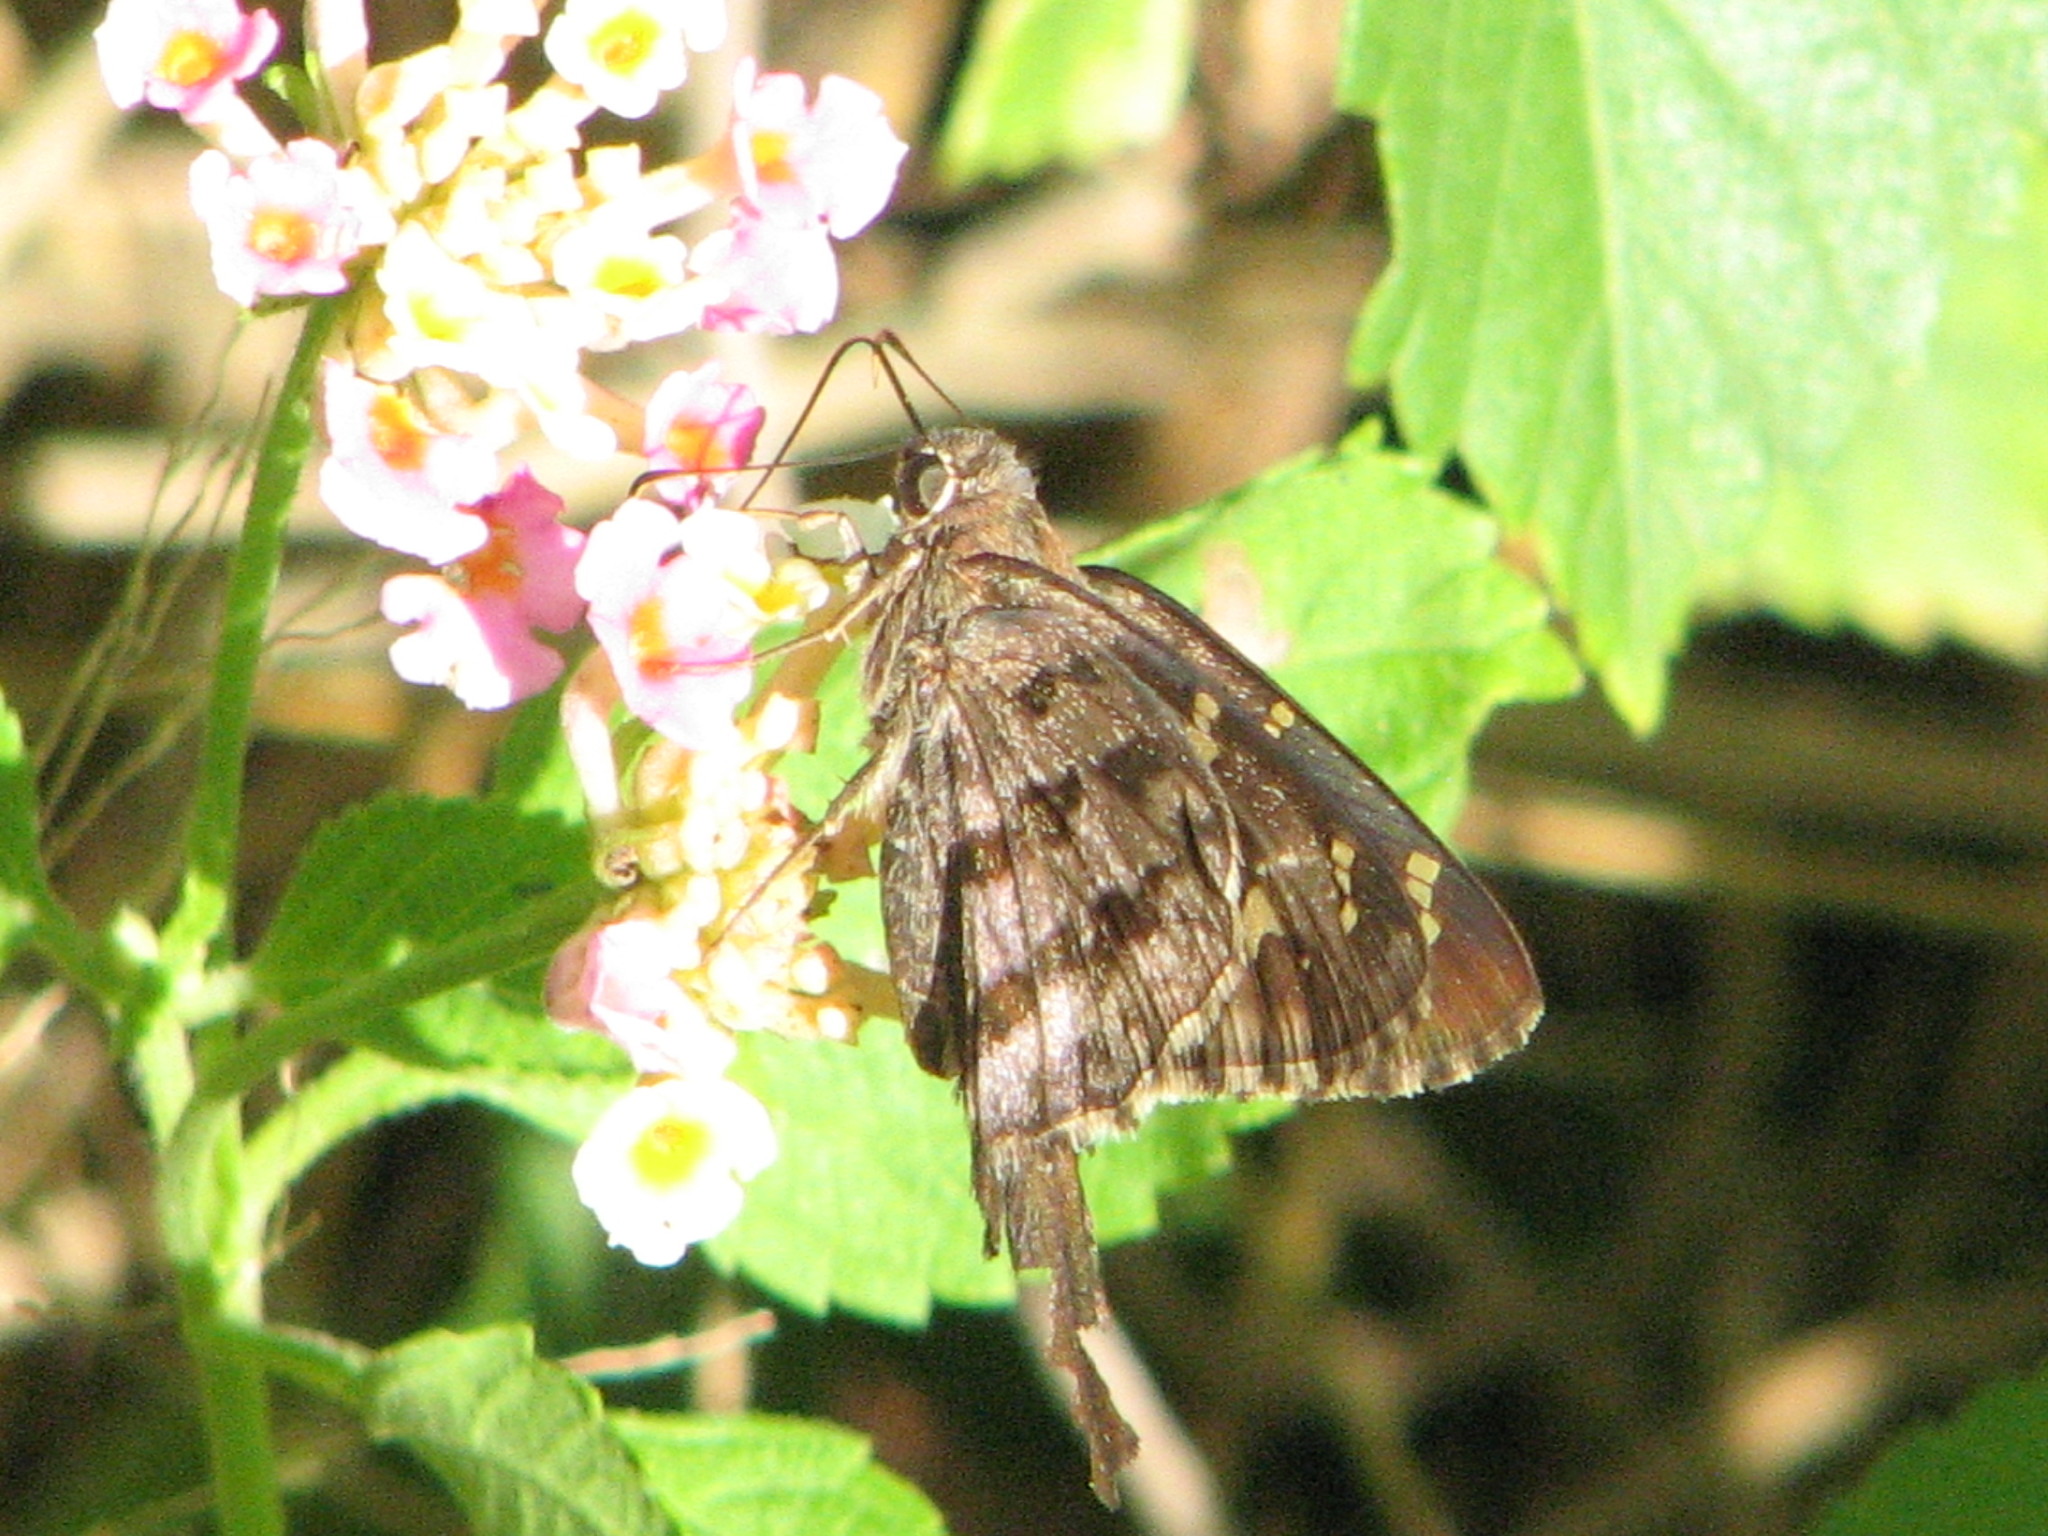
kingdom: Animalia
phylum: Arthropoda
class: Insecta
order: Lepidoptera
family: Hesperiidae
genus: Thorybes
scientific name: Thorybes
